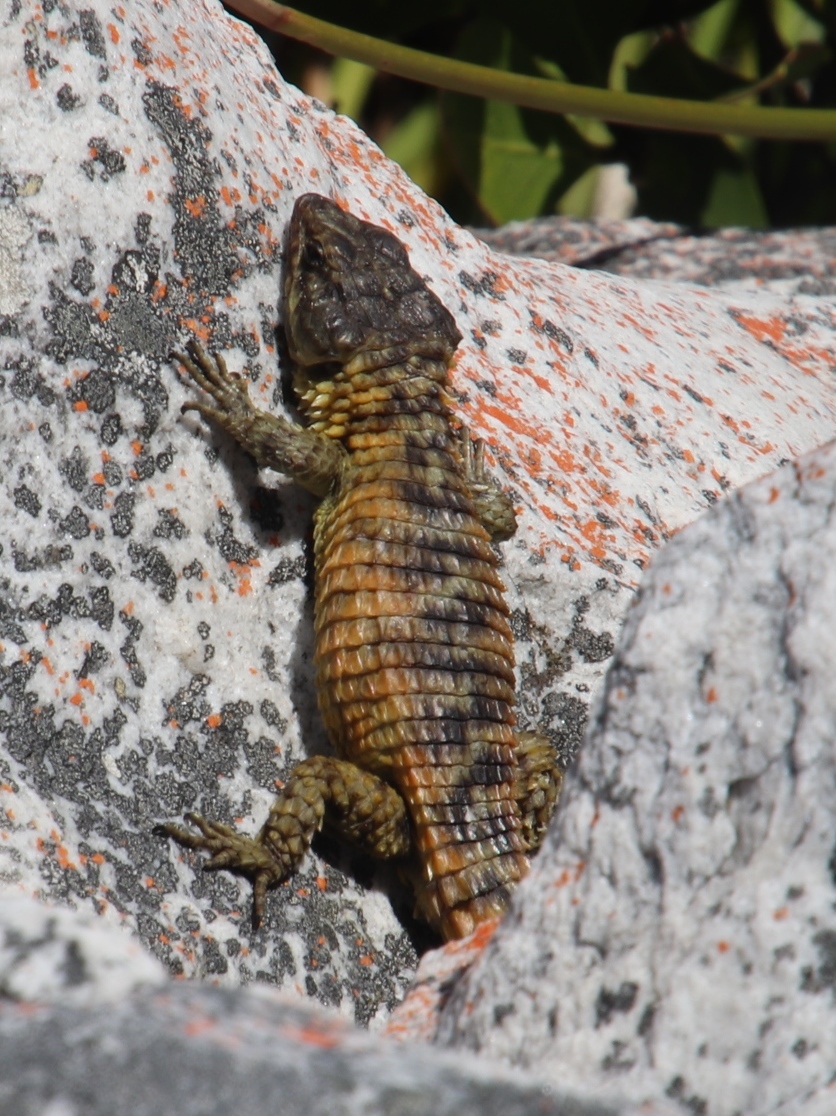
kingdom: Animalia
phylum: Chordata
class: Squamata
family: Cordylidae
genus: Cordylus
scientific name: Cordylus cordylus
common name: Cape girdled lizard
